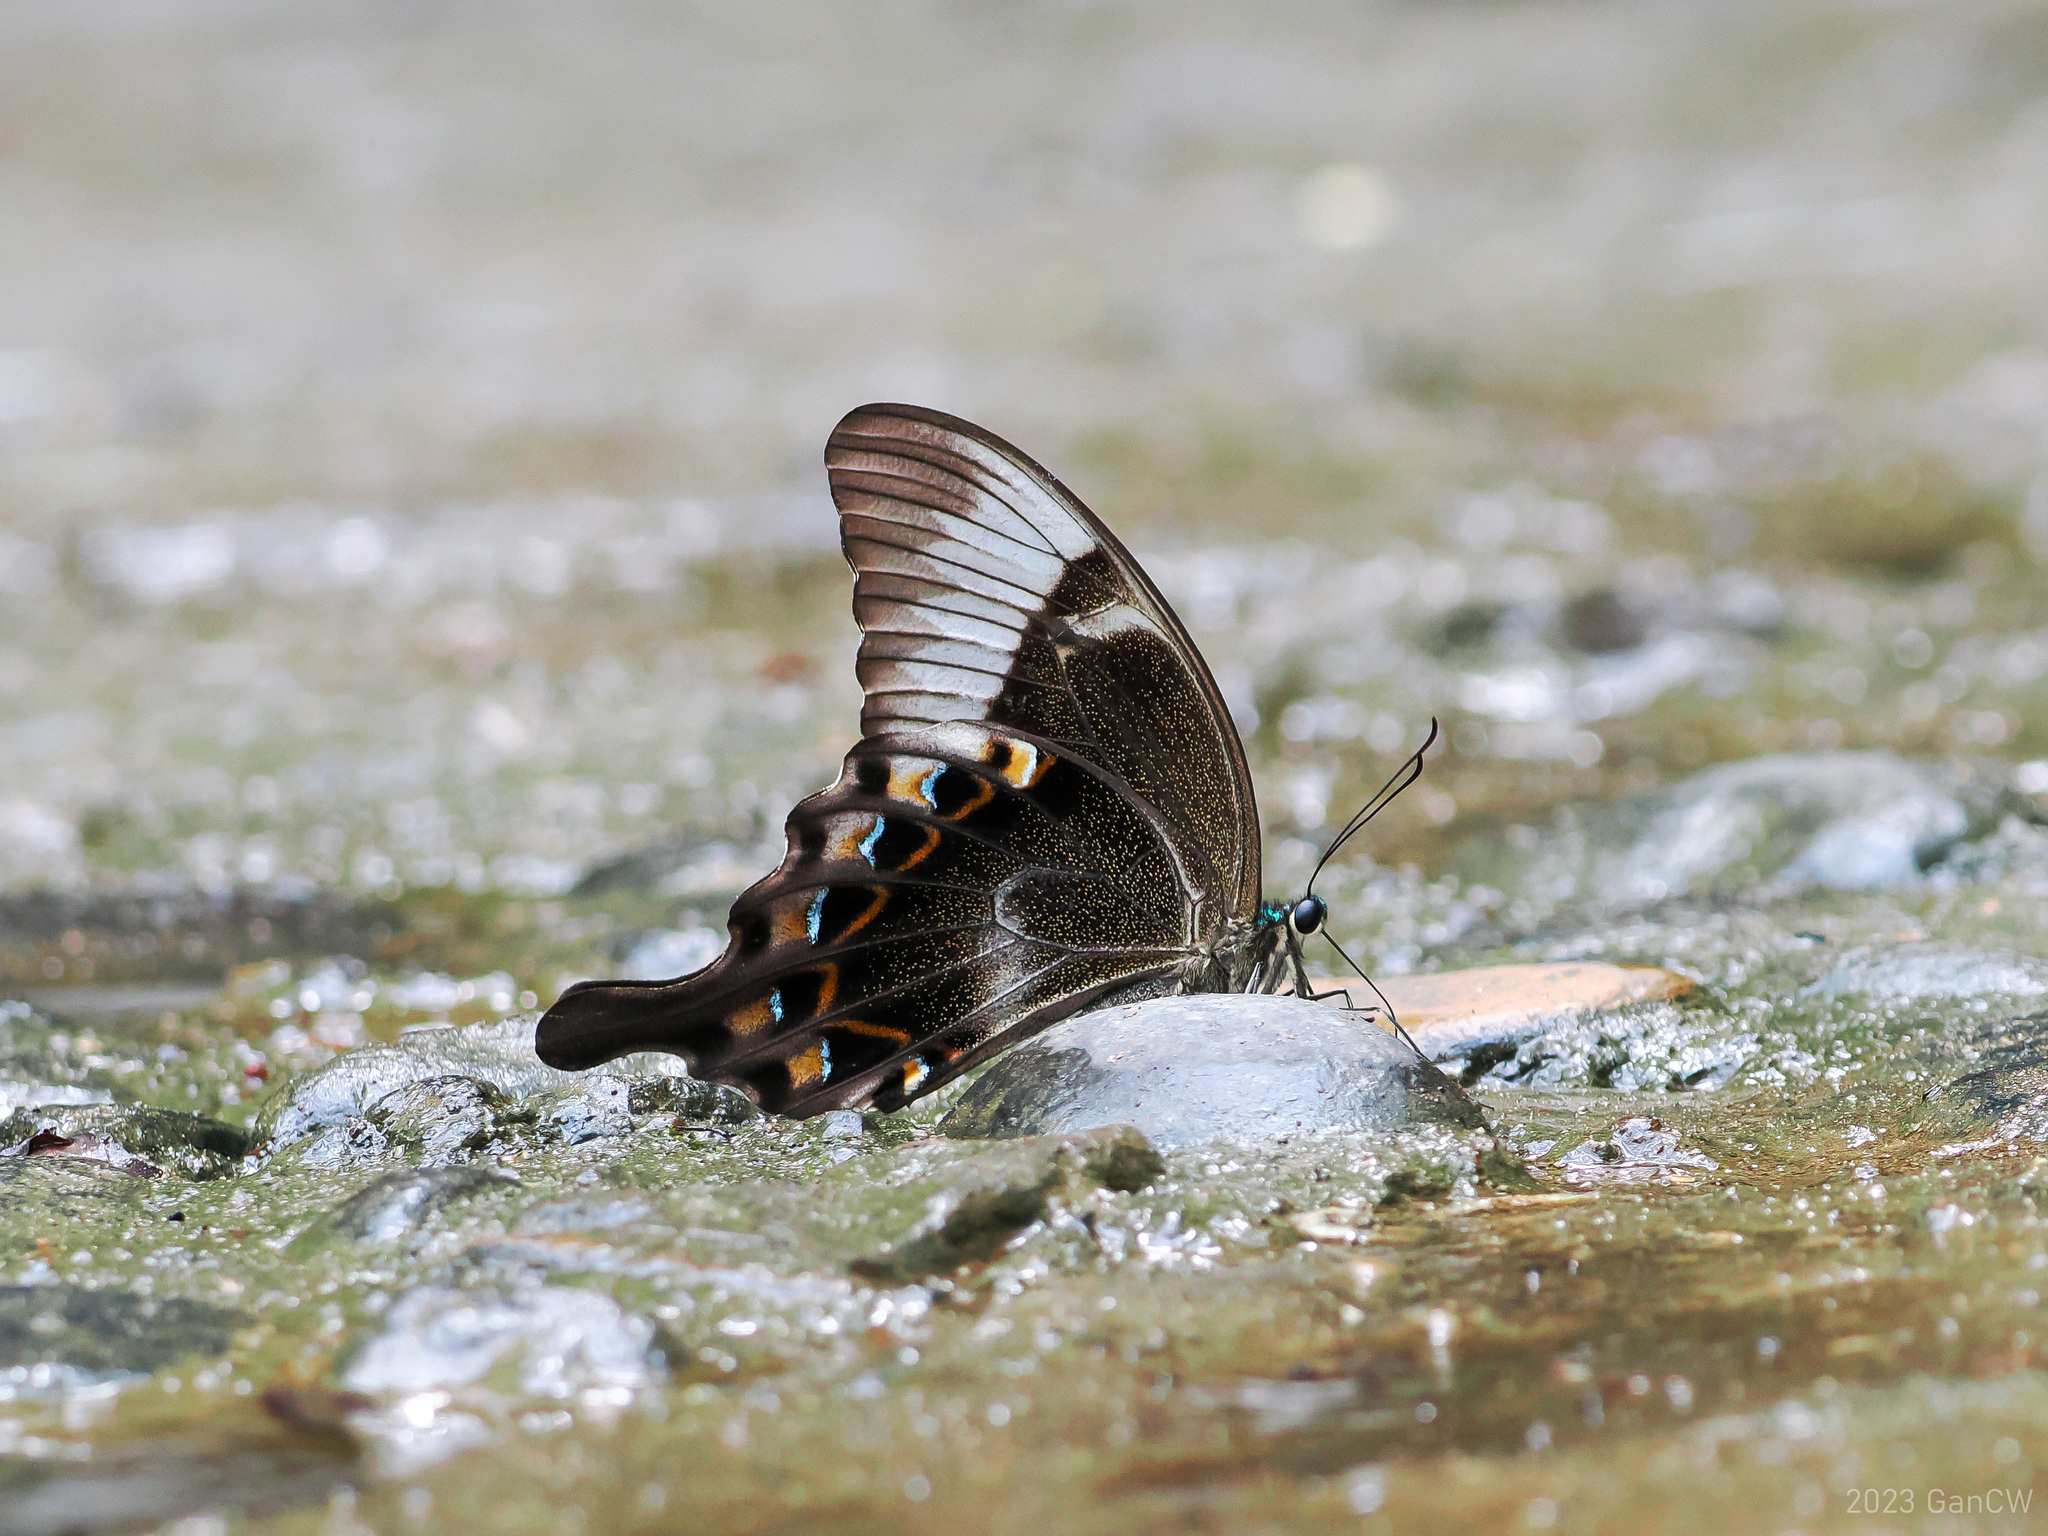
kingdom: Animalia
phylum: Arthropoda
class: Insecta
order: Lepidoptera
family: Papilionidae
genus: Papilio
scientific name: Papilio peranthus
